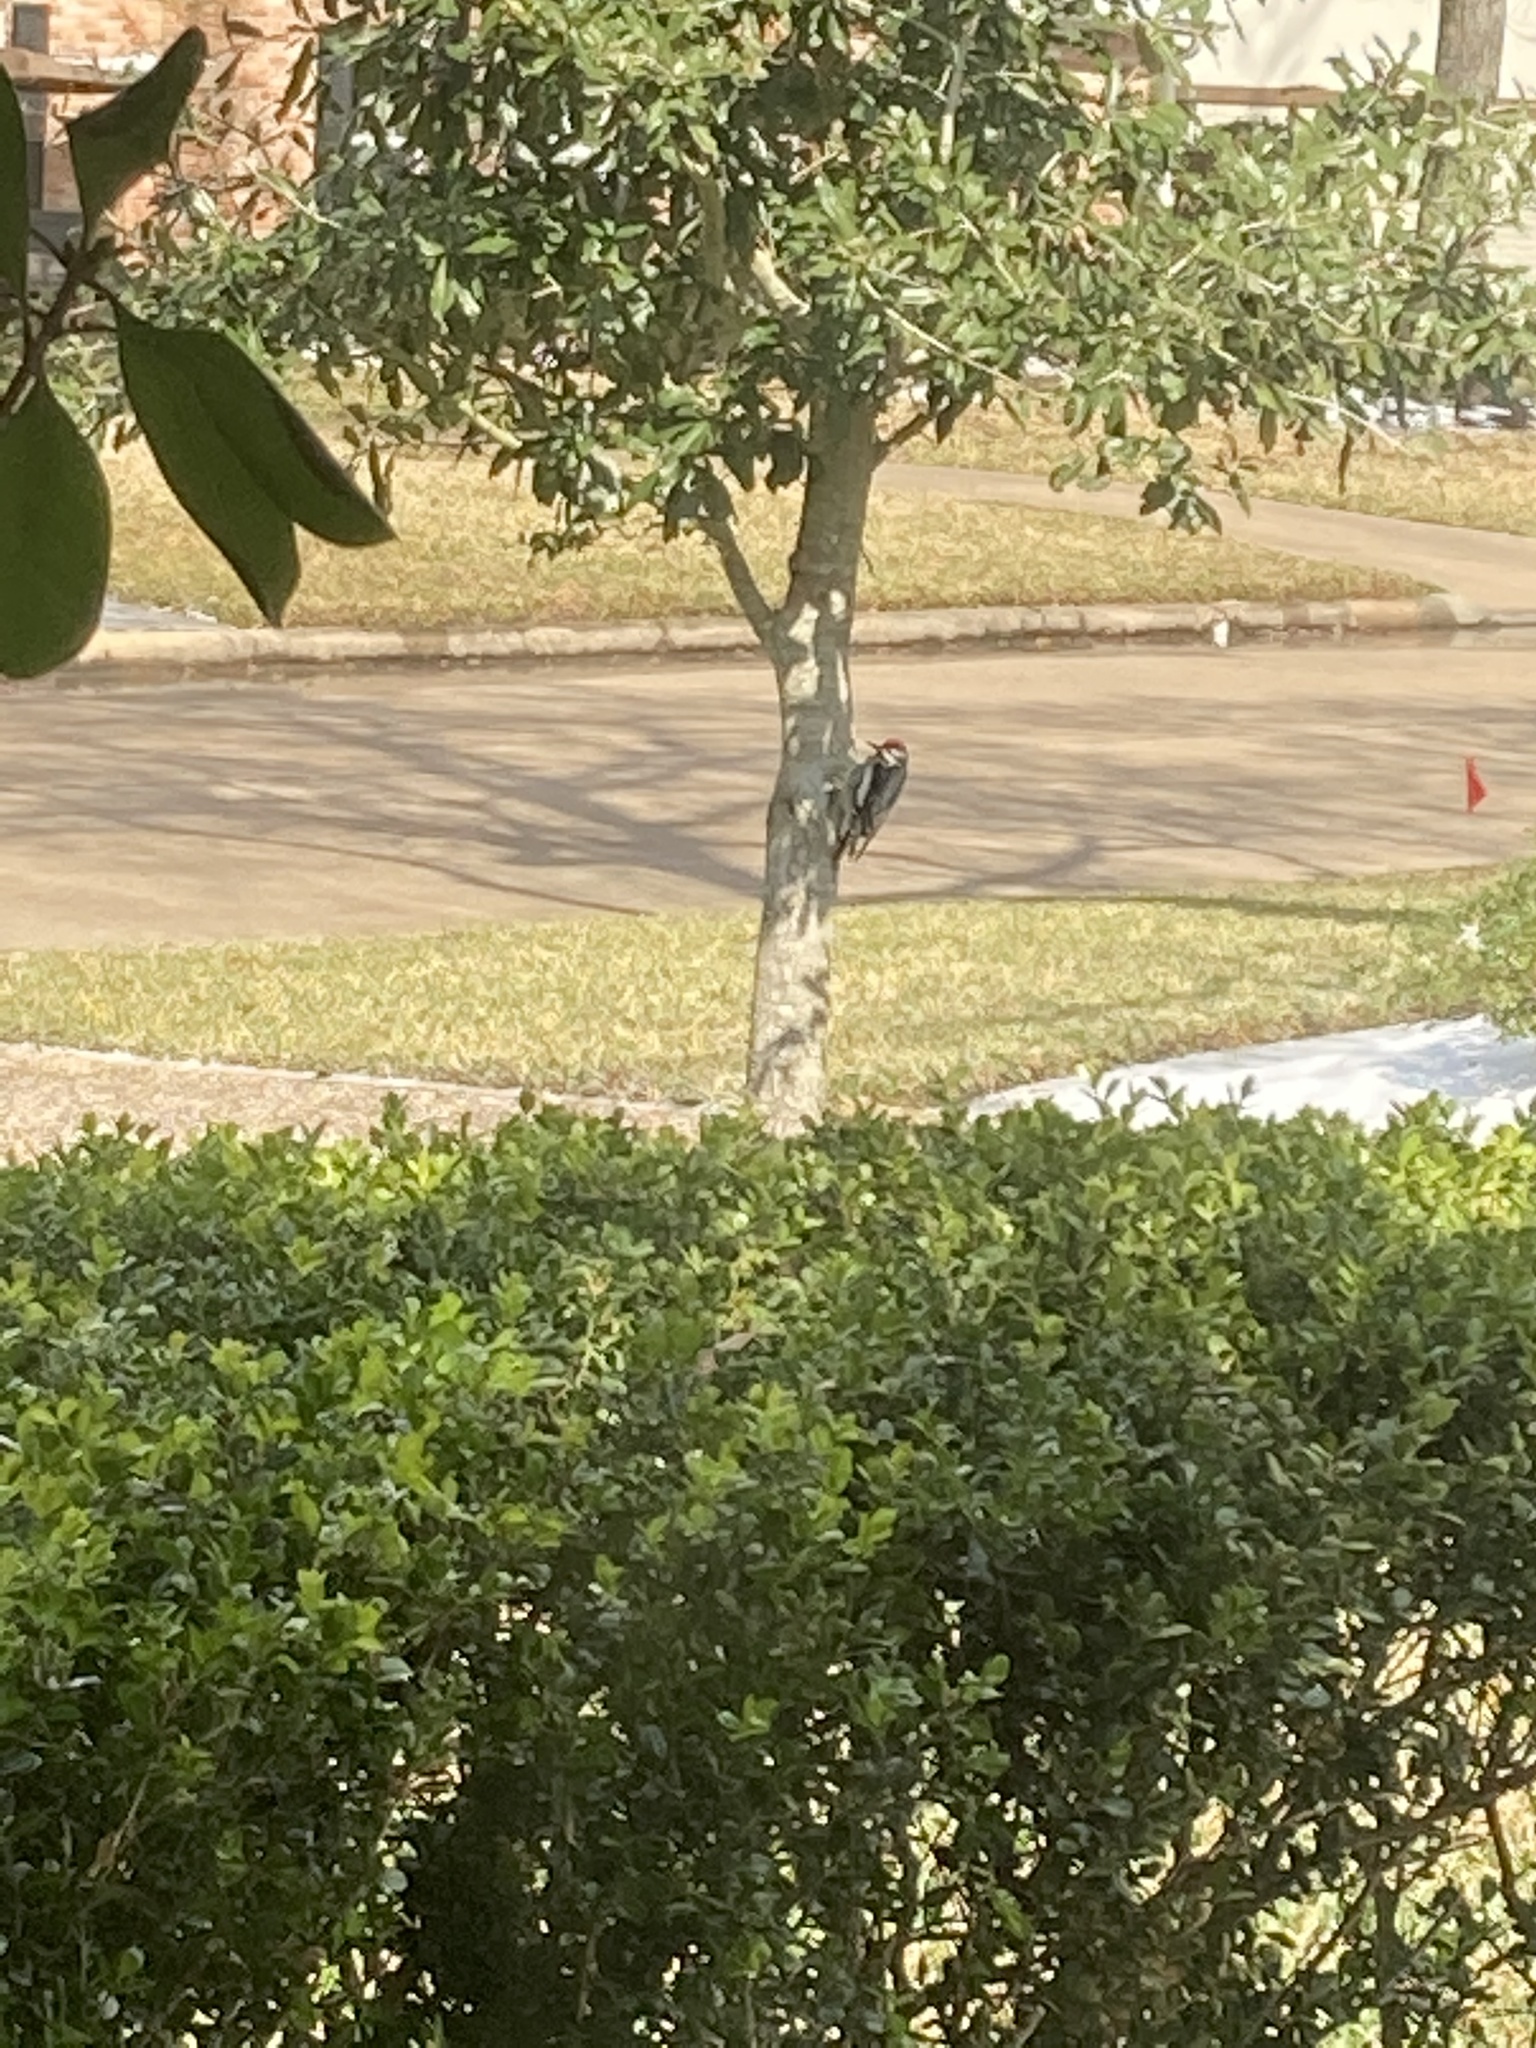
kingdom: Animalia
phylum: Chordata
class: Aves
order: Piciformes
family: Picidae
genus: Sphyrapicus
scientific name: Sphyrapicus varius
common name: Yellow-bellied sapsucker
